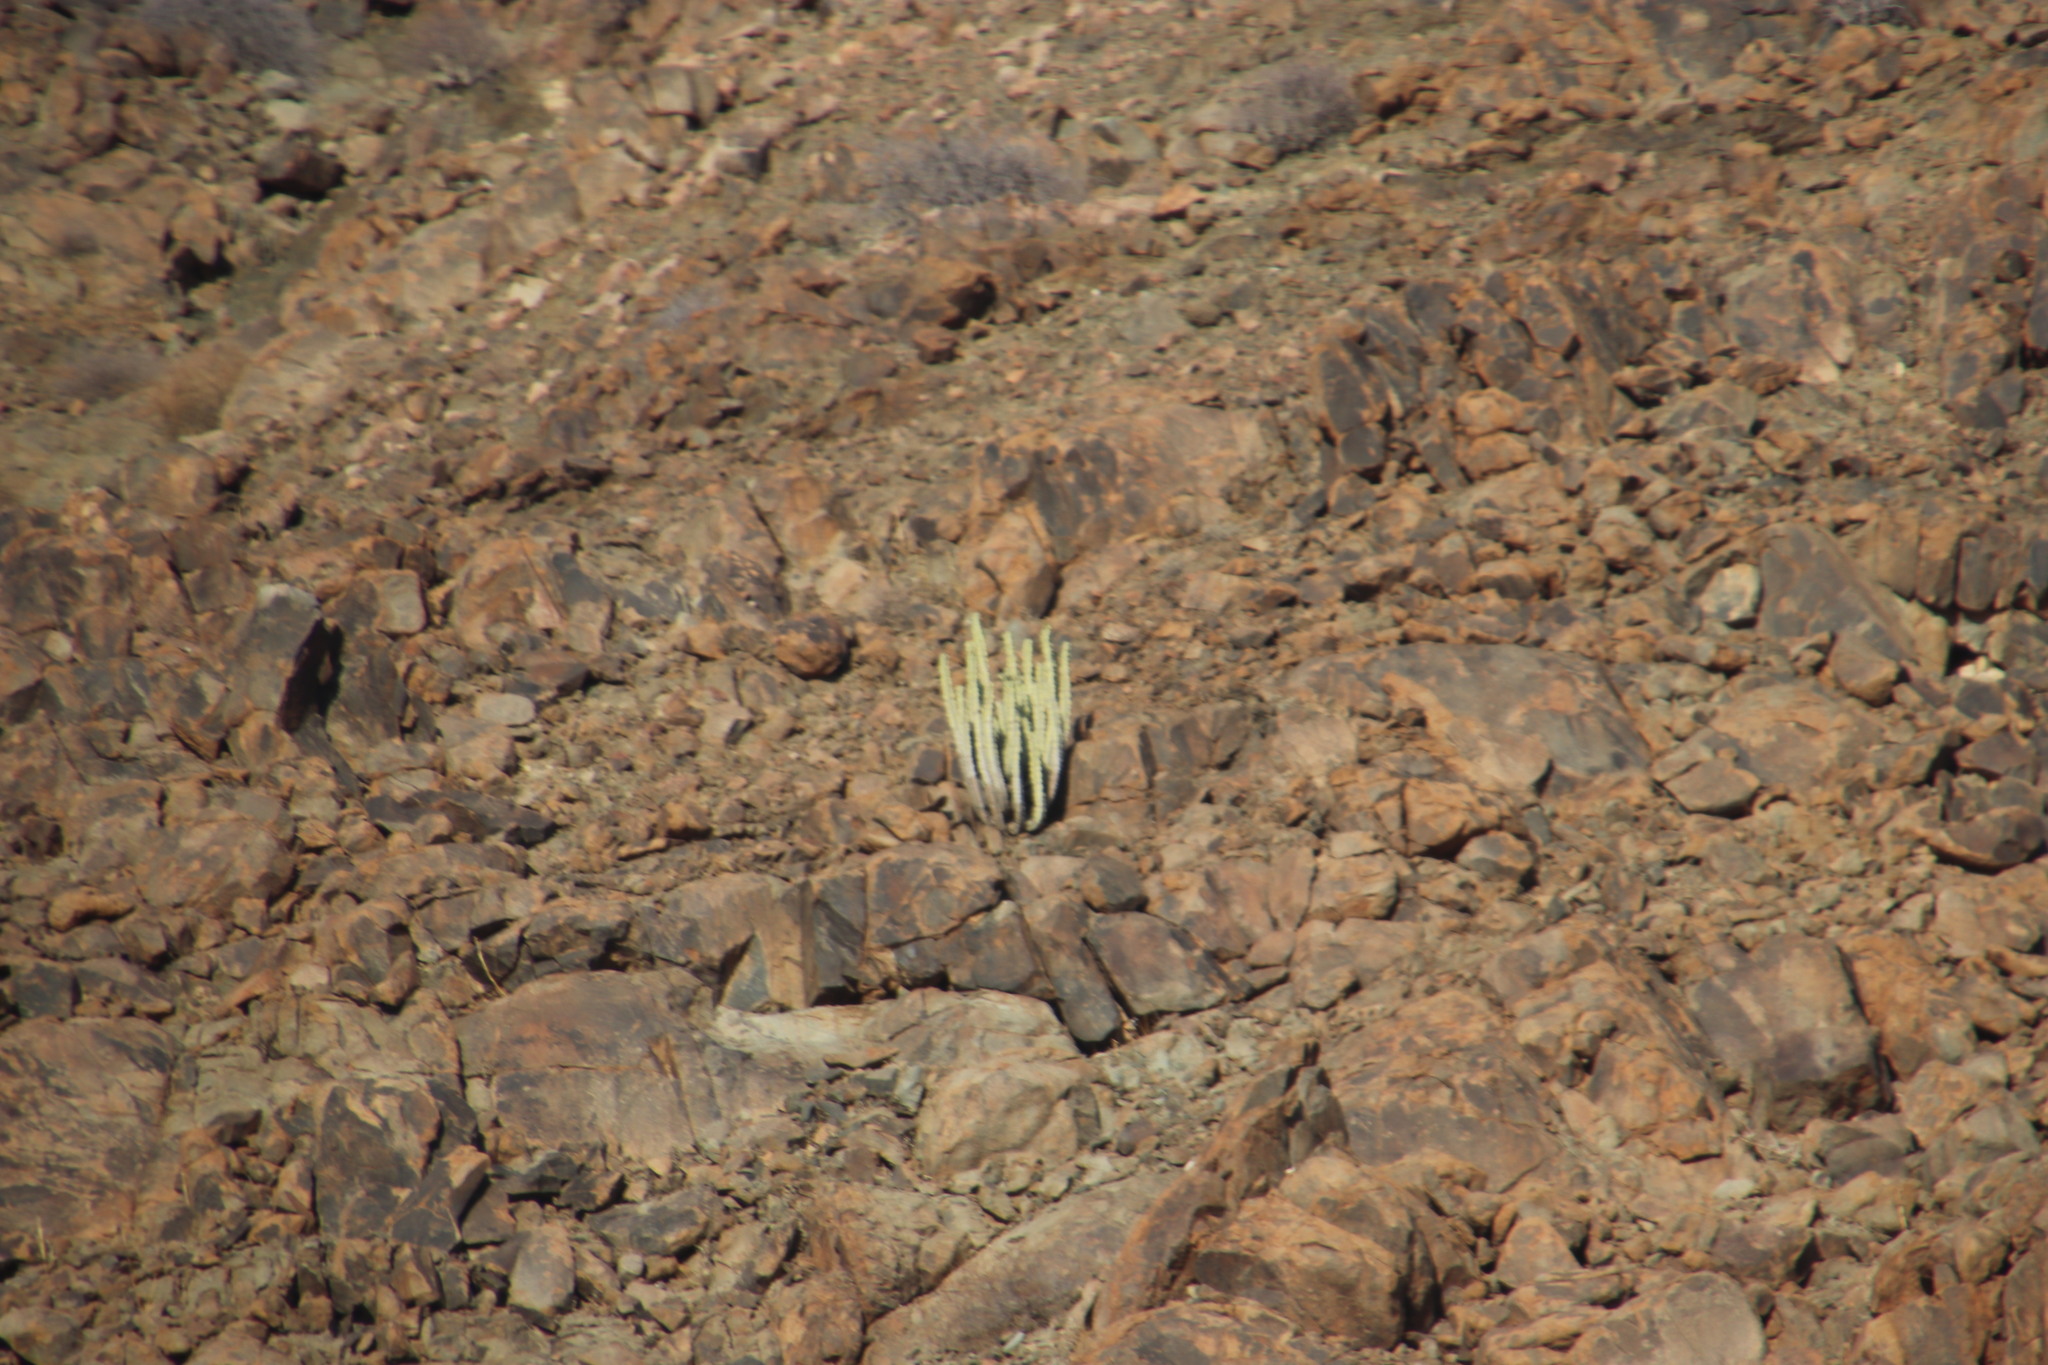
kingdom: Plantae
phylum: Tracheophyta
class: Magnoliopsida
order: Malpighiales
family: Euphorbiaceae
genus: Euphorbia
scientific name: Euphorbia virosa
